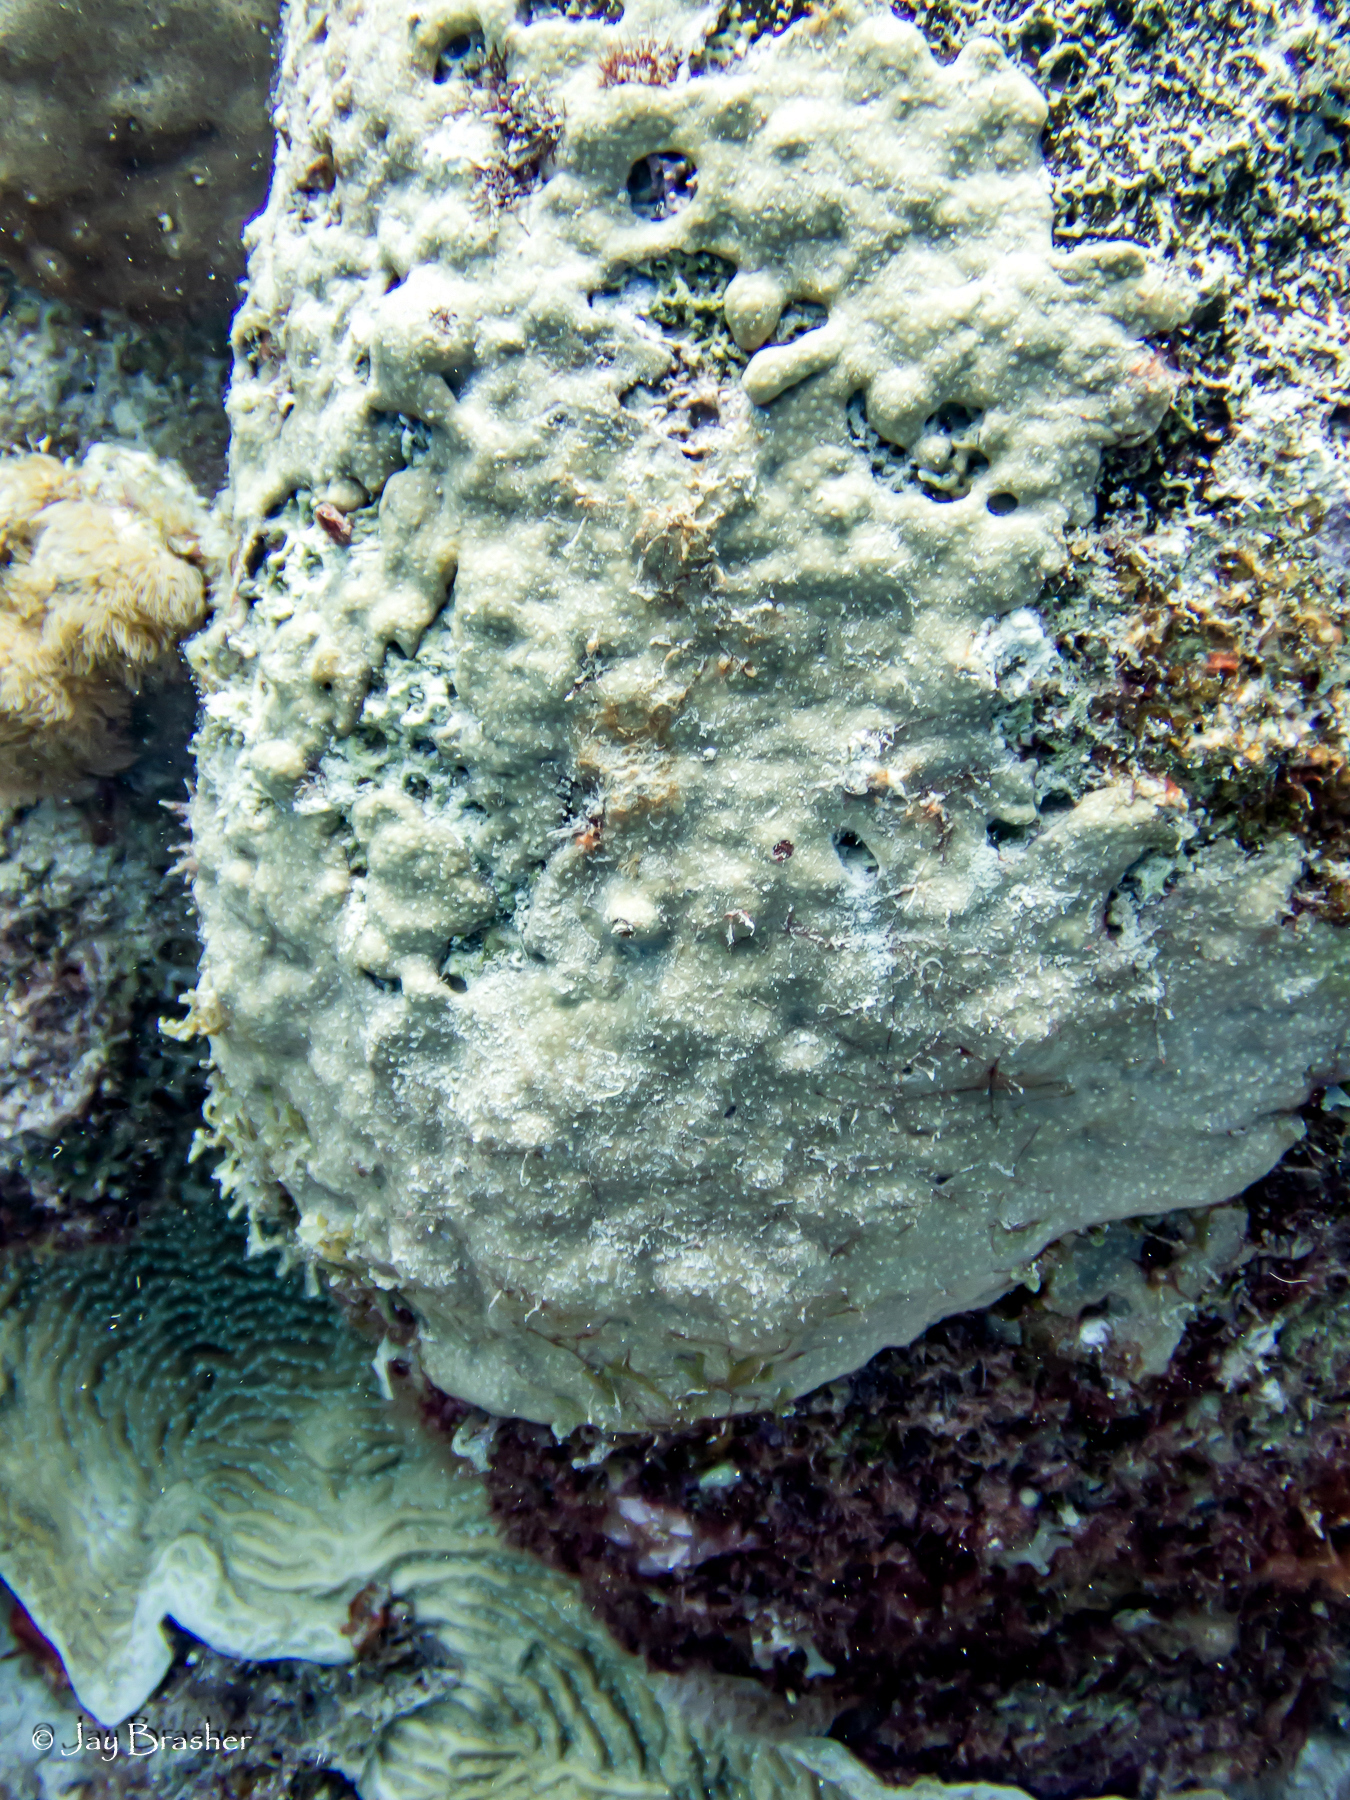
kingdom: Animalia
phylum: Cnidaria
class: Anthozoa
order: Scleractinia
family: Agariciidae
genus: Agaricia
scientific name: Agaricia lamarcki
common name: Lamarck's sheet coral
